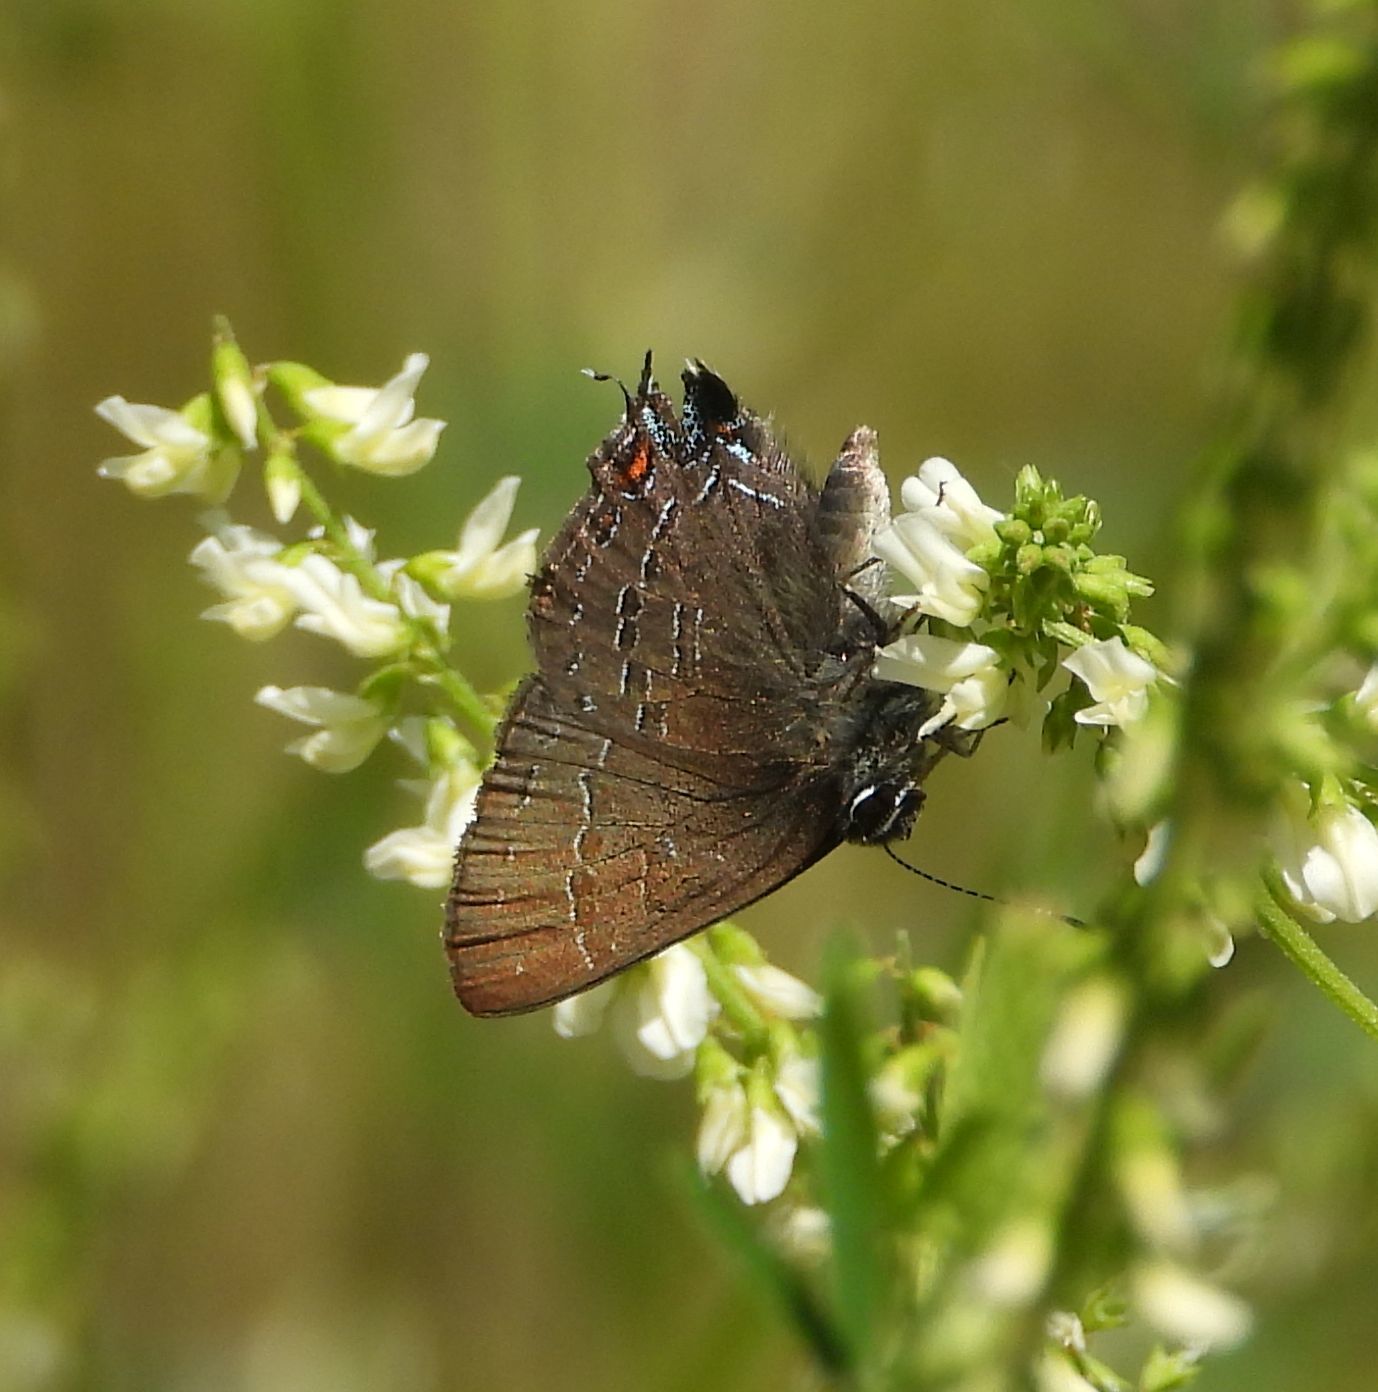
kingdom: Animalia
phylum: Arthropoda
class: Insecta
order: Lepidoptera
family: Lycaenidae
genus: Satyrium
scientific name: Satyrium calanus
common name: Banded hairstreak
